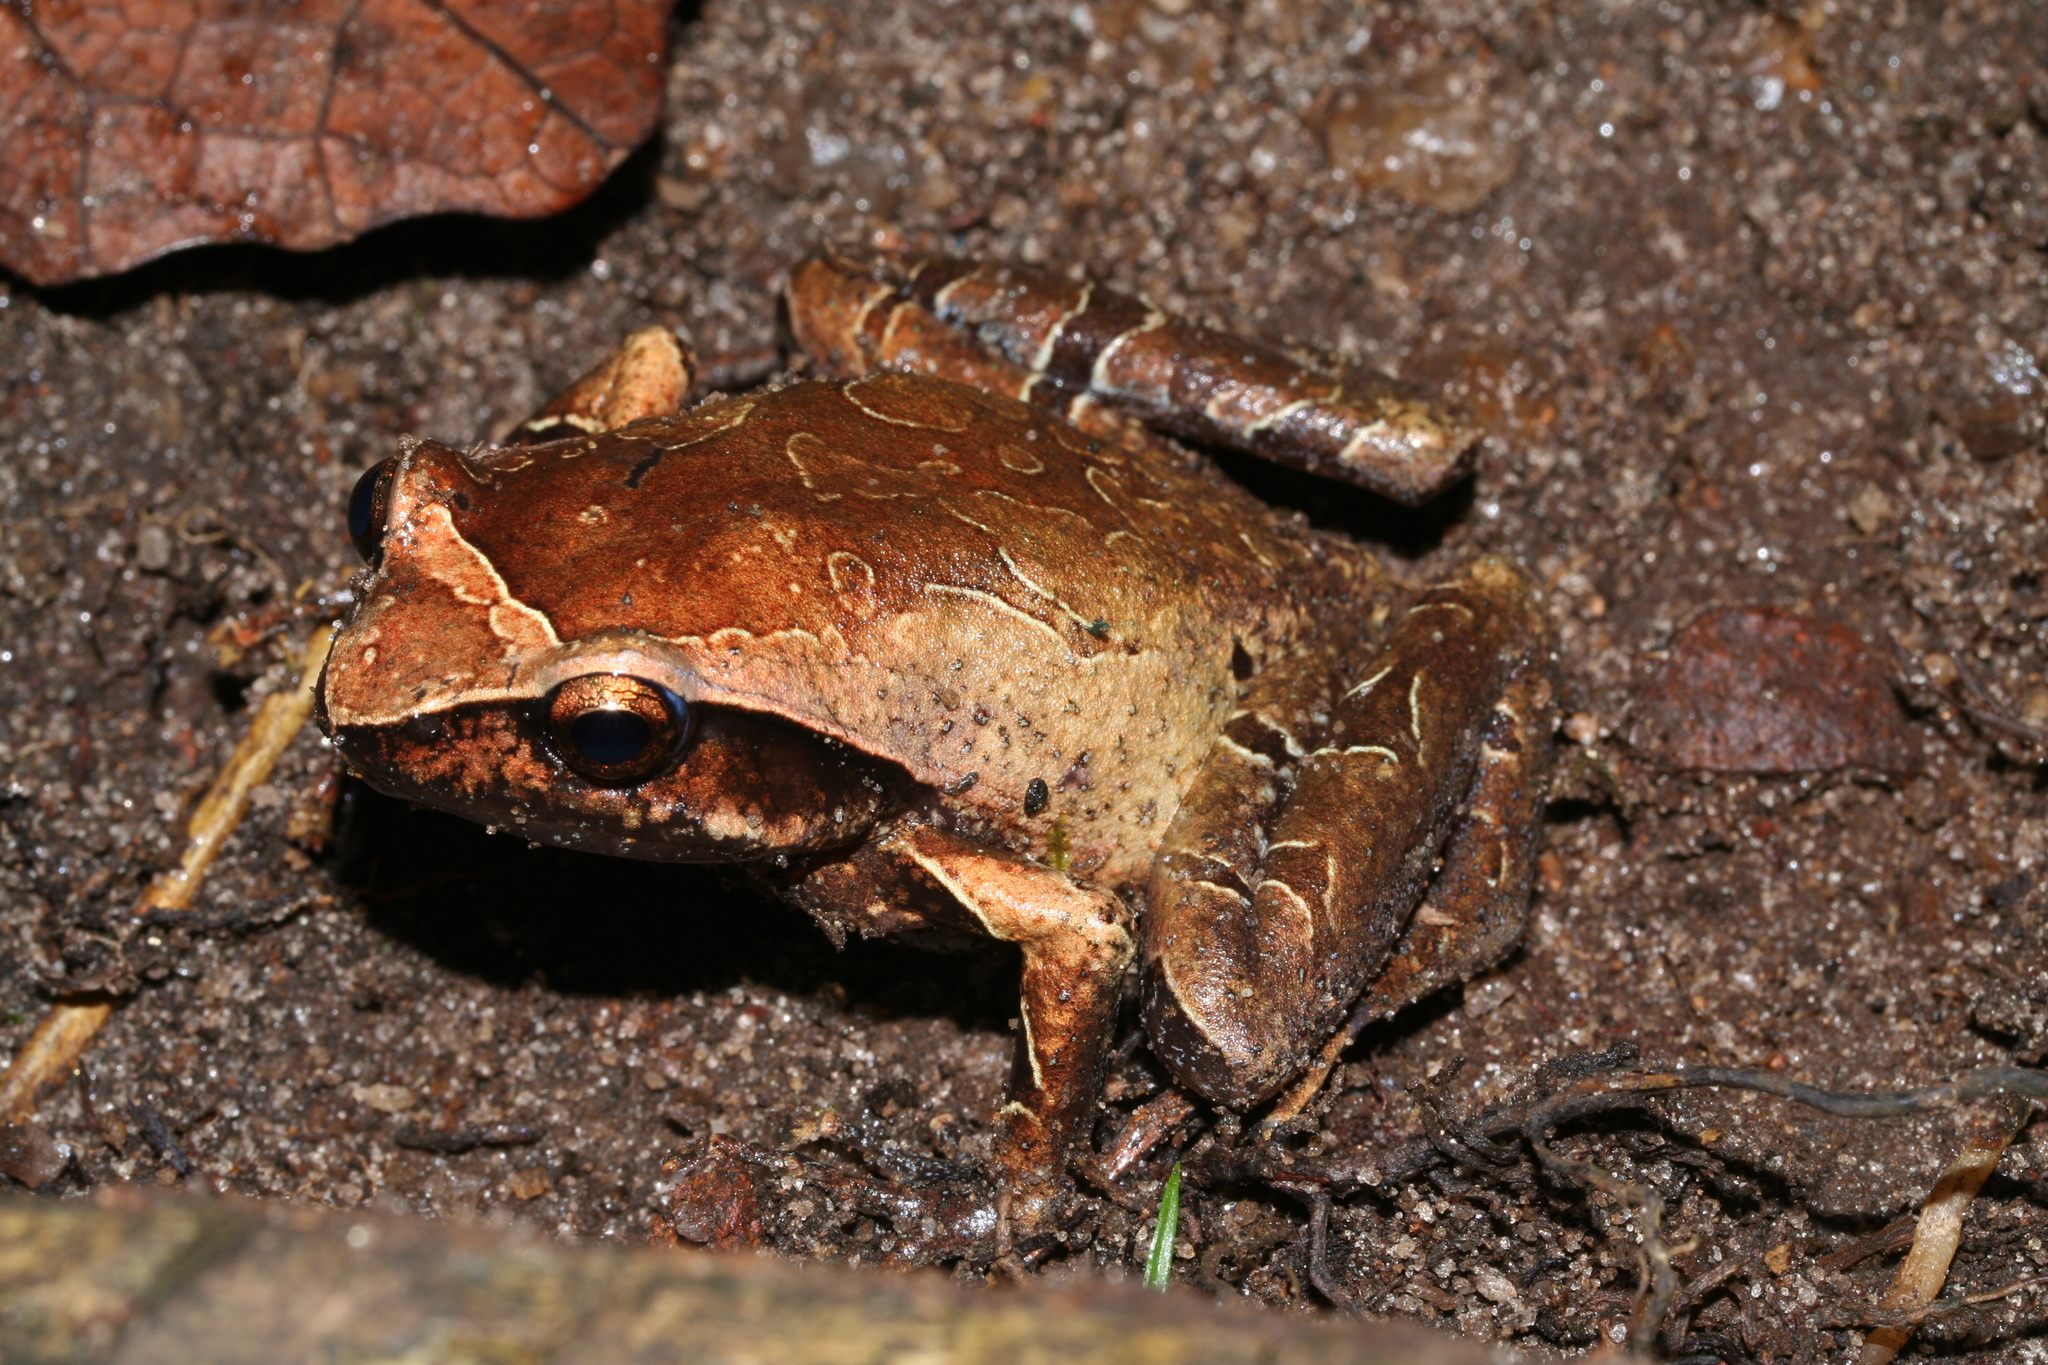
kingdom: Animalia
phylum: Chordata
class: Amphibia
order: Anura
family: Microhylidae
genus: Plethodontohyla
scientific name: Plethodontohyla inguinalis
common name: Boulenger's digging frog
